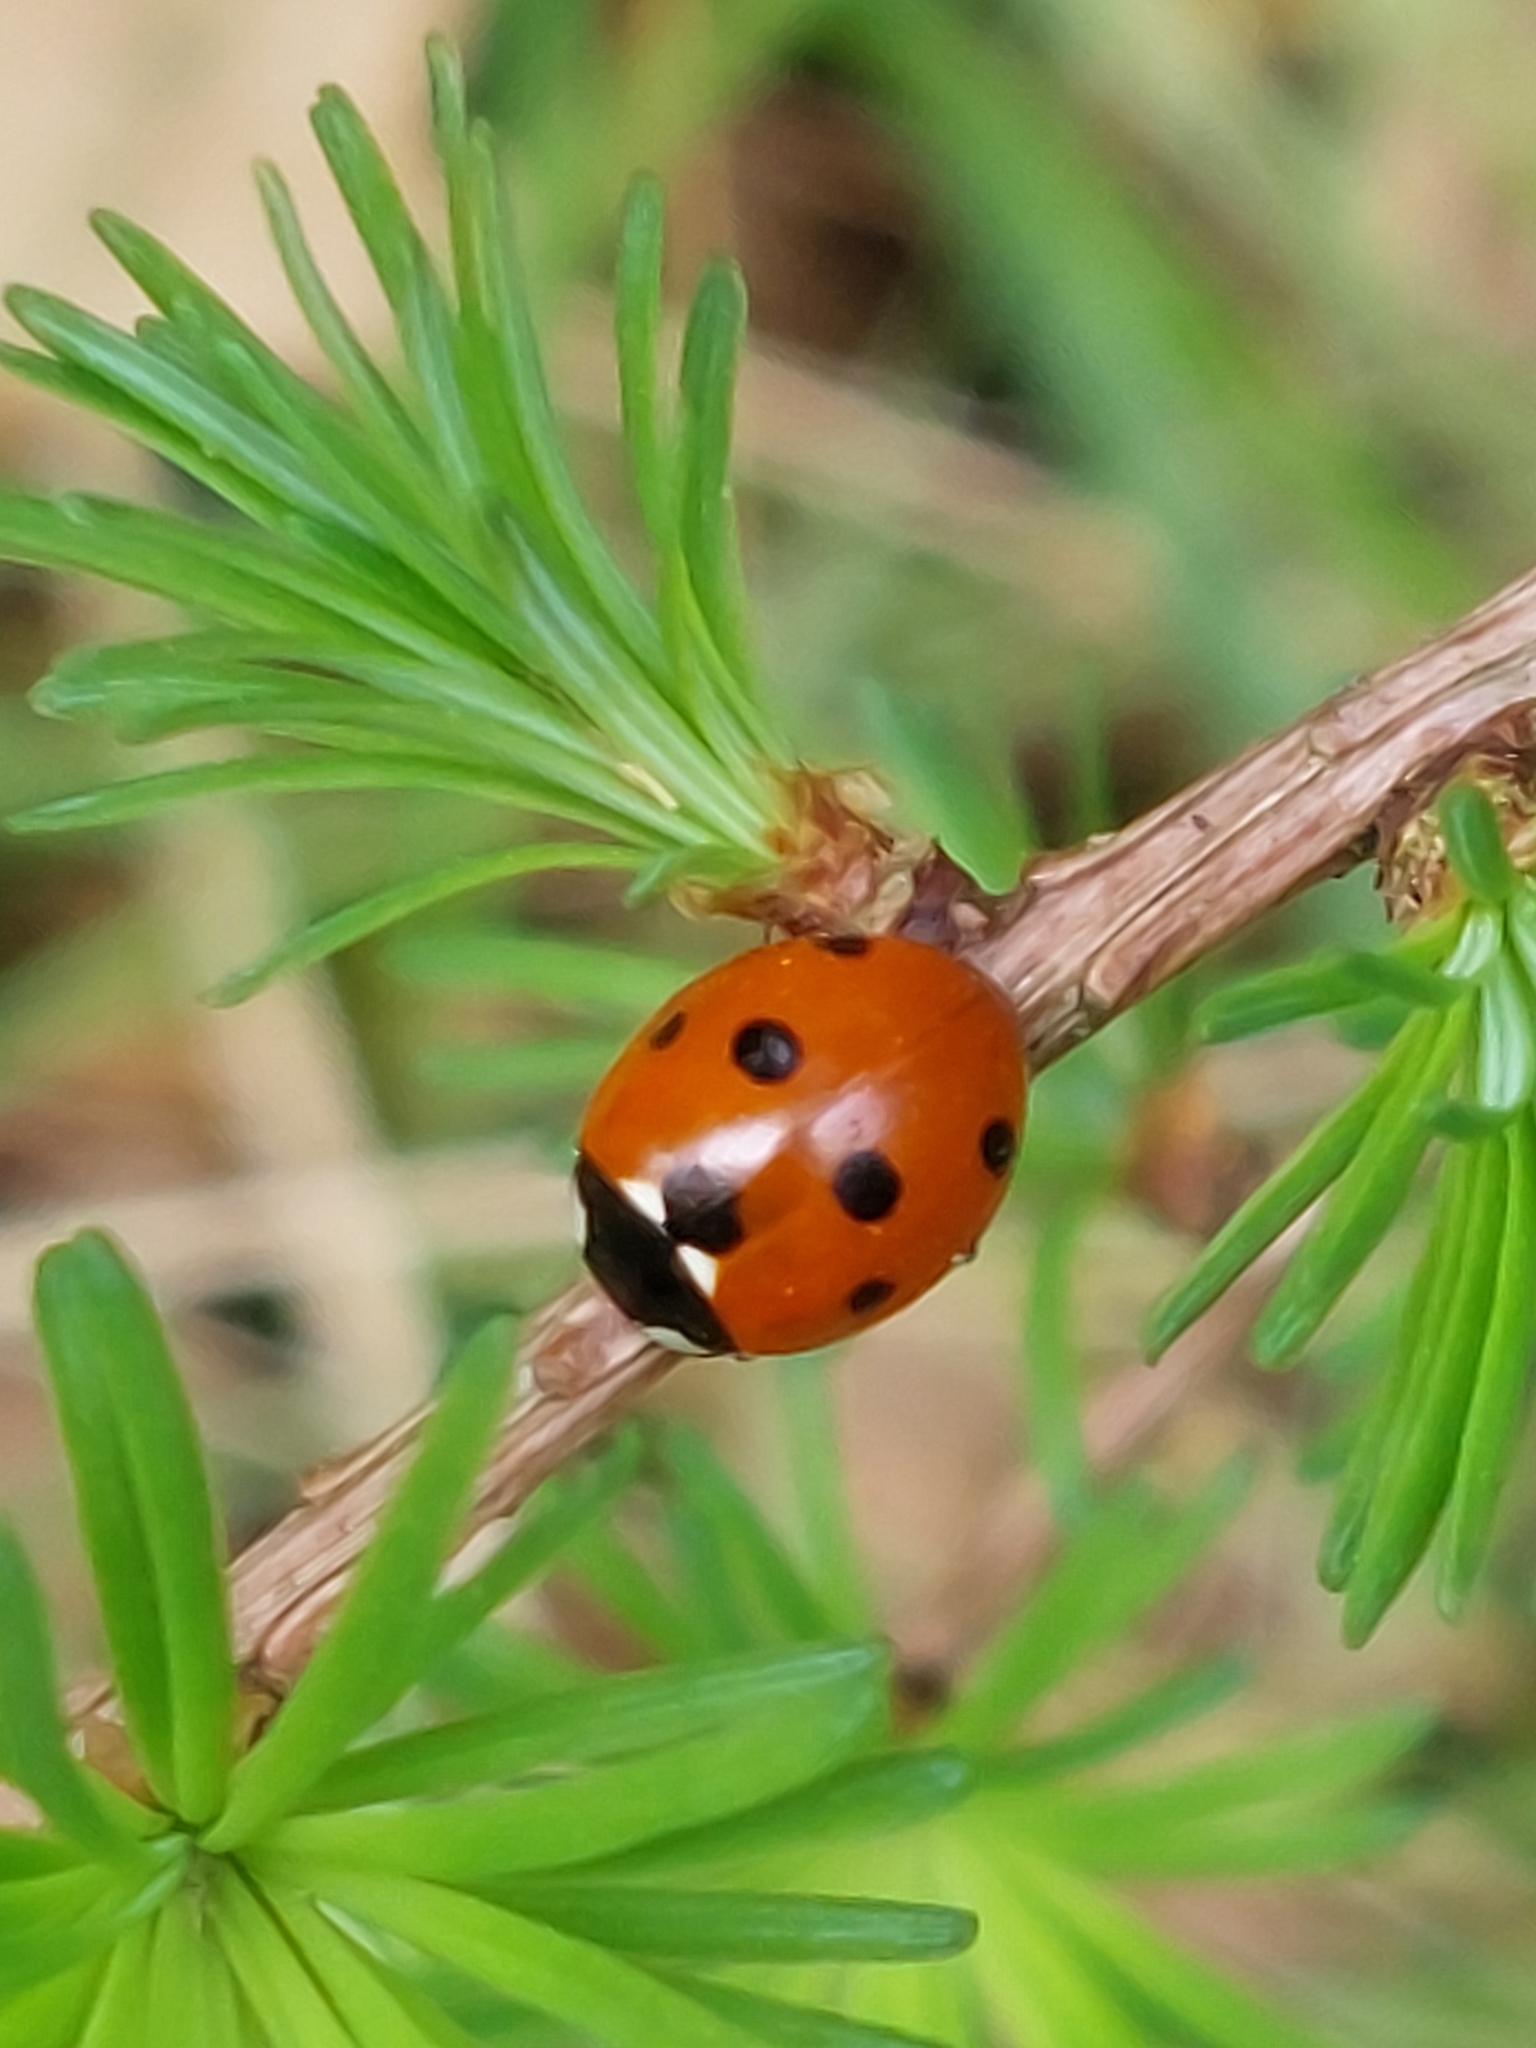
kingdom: Animalia
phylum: Arthropoda
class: Insecta
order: Coleoptera
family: Coccinellidae
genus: Coccinella
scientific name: Coccinella septempunctata
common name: Sevenspotted lady beetle
